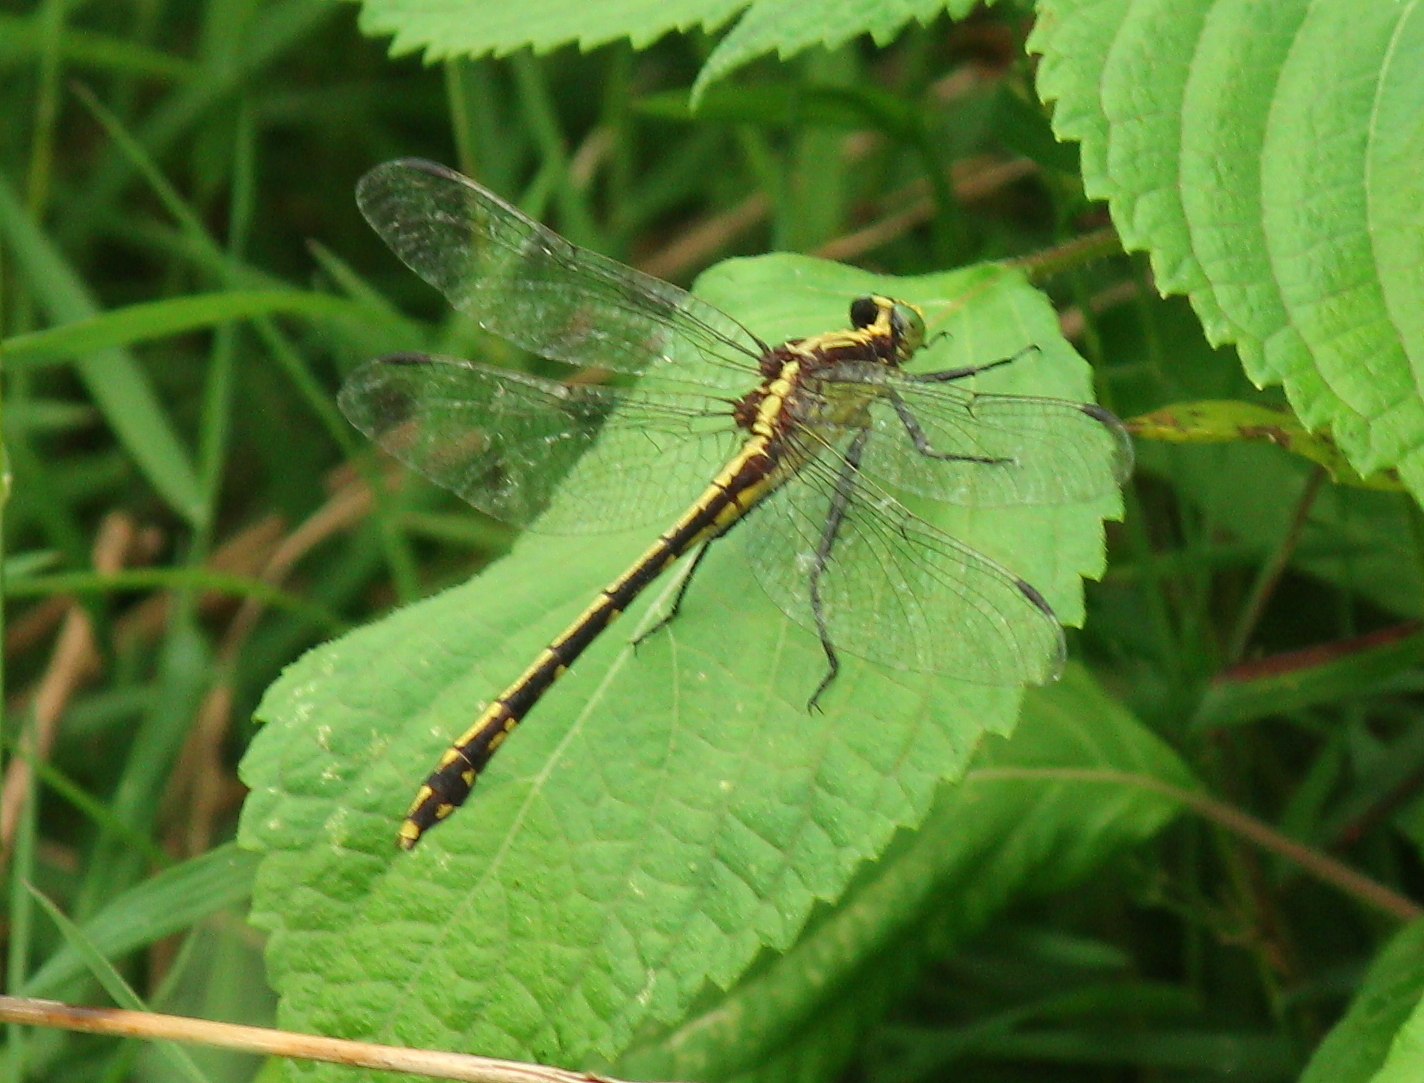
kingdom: Animalia
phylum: Arthropoda
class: Insecta
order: Odonata
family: Gomphidae
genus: Dromogomphus
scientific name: Dromogomphus spinosus
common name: Black-shouldered spinyleg
